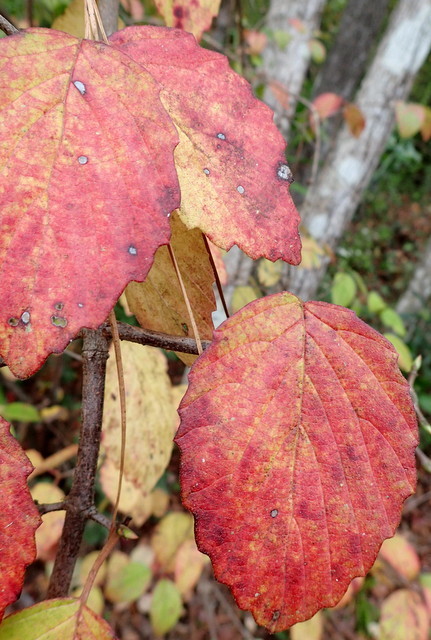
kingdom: Plantae
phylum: Tracheophyta
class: Magnoliopsida
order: Dipsacales
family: Viburnaceae
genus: Viburnum
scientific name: Viburnum scabrellum
